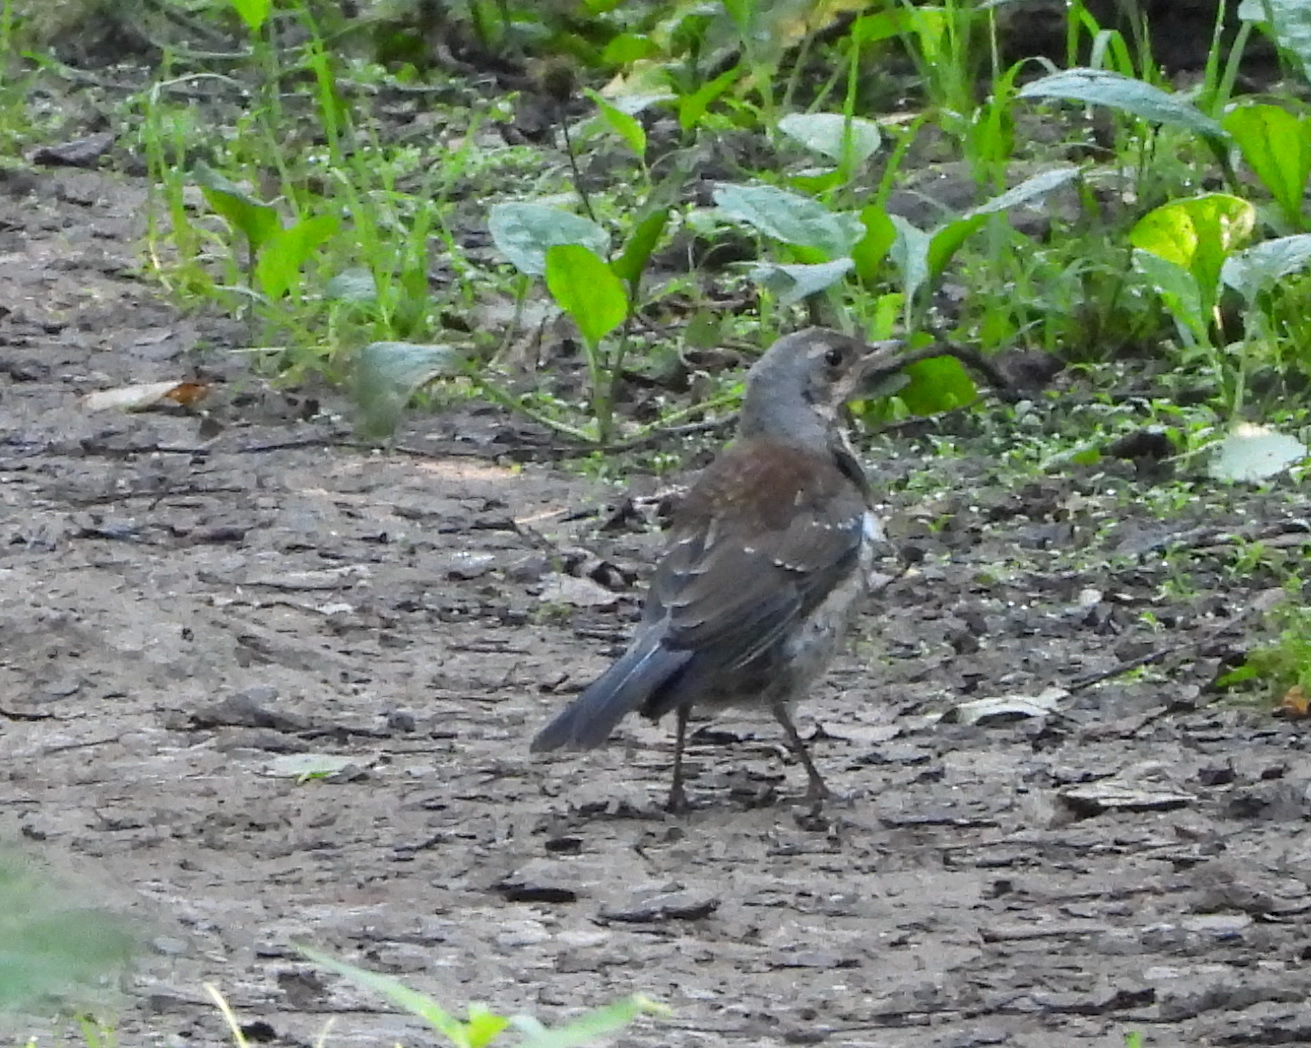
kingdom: Animalia
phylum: Chordata
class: Aves
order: Passeriformes
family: Turdidae
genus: Turdus
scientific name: Turdus pilaris
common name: Fieldfare
